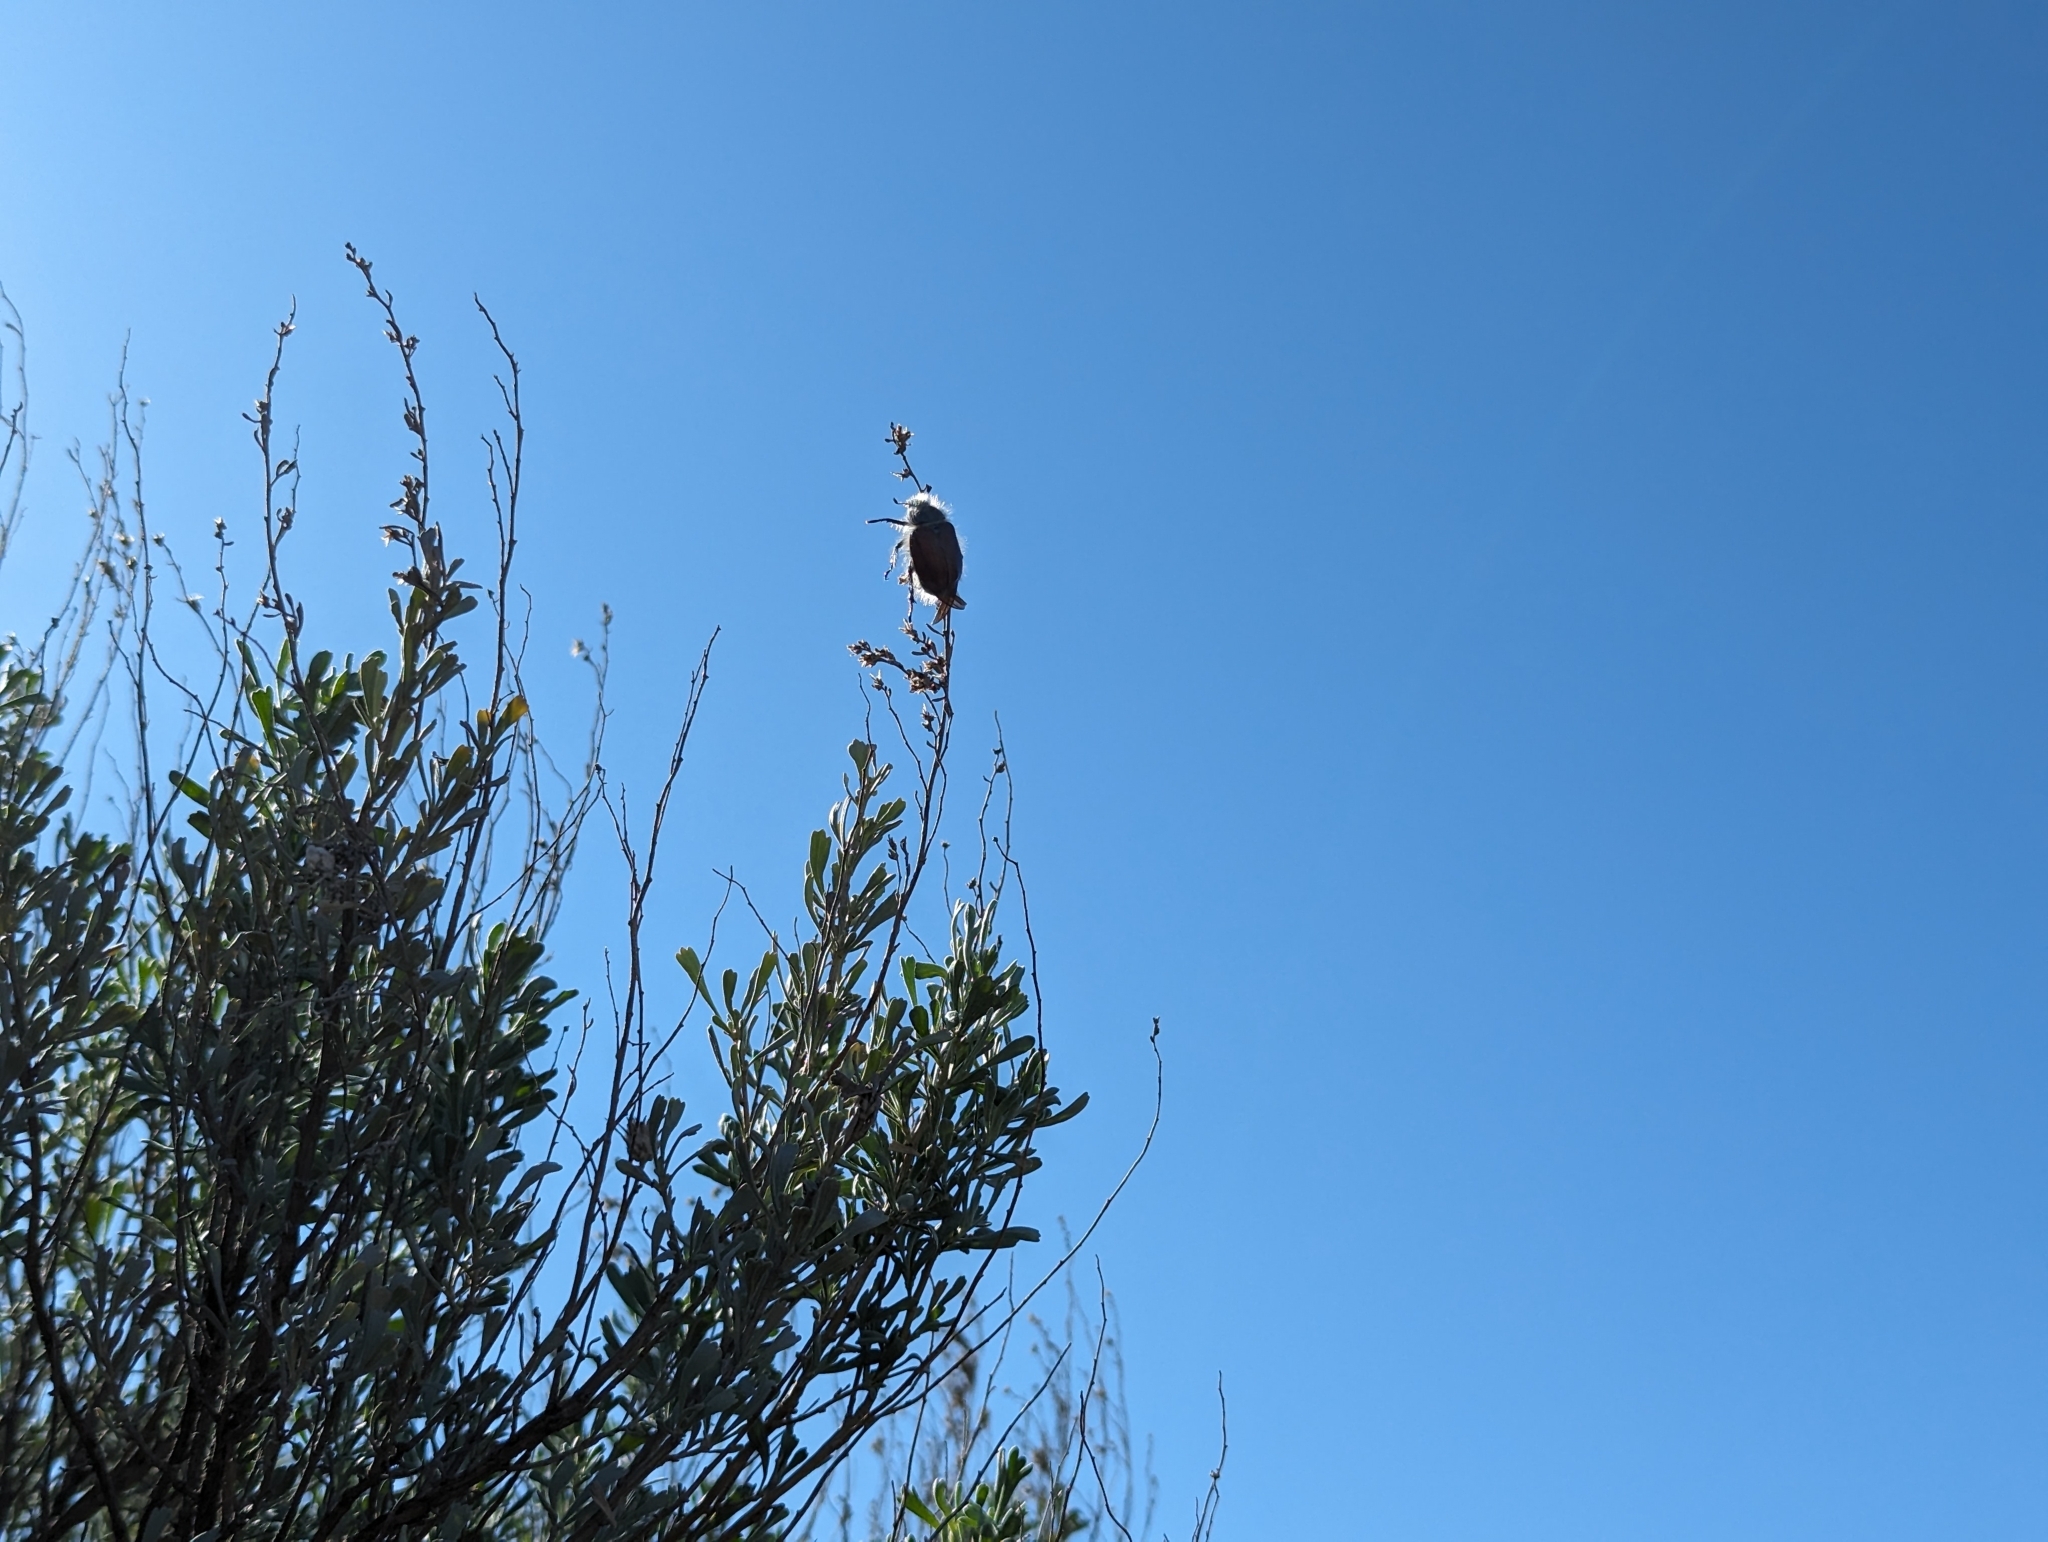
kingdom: Animalia
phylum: Arthropoda
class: Insecta
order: Coleoptera
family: Scarabaeidae
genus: Paracotalpa
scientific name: Paracotalpa granicollis
